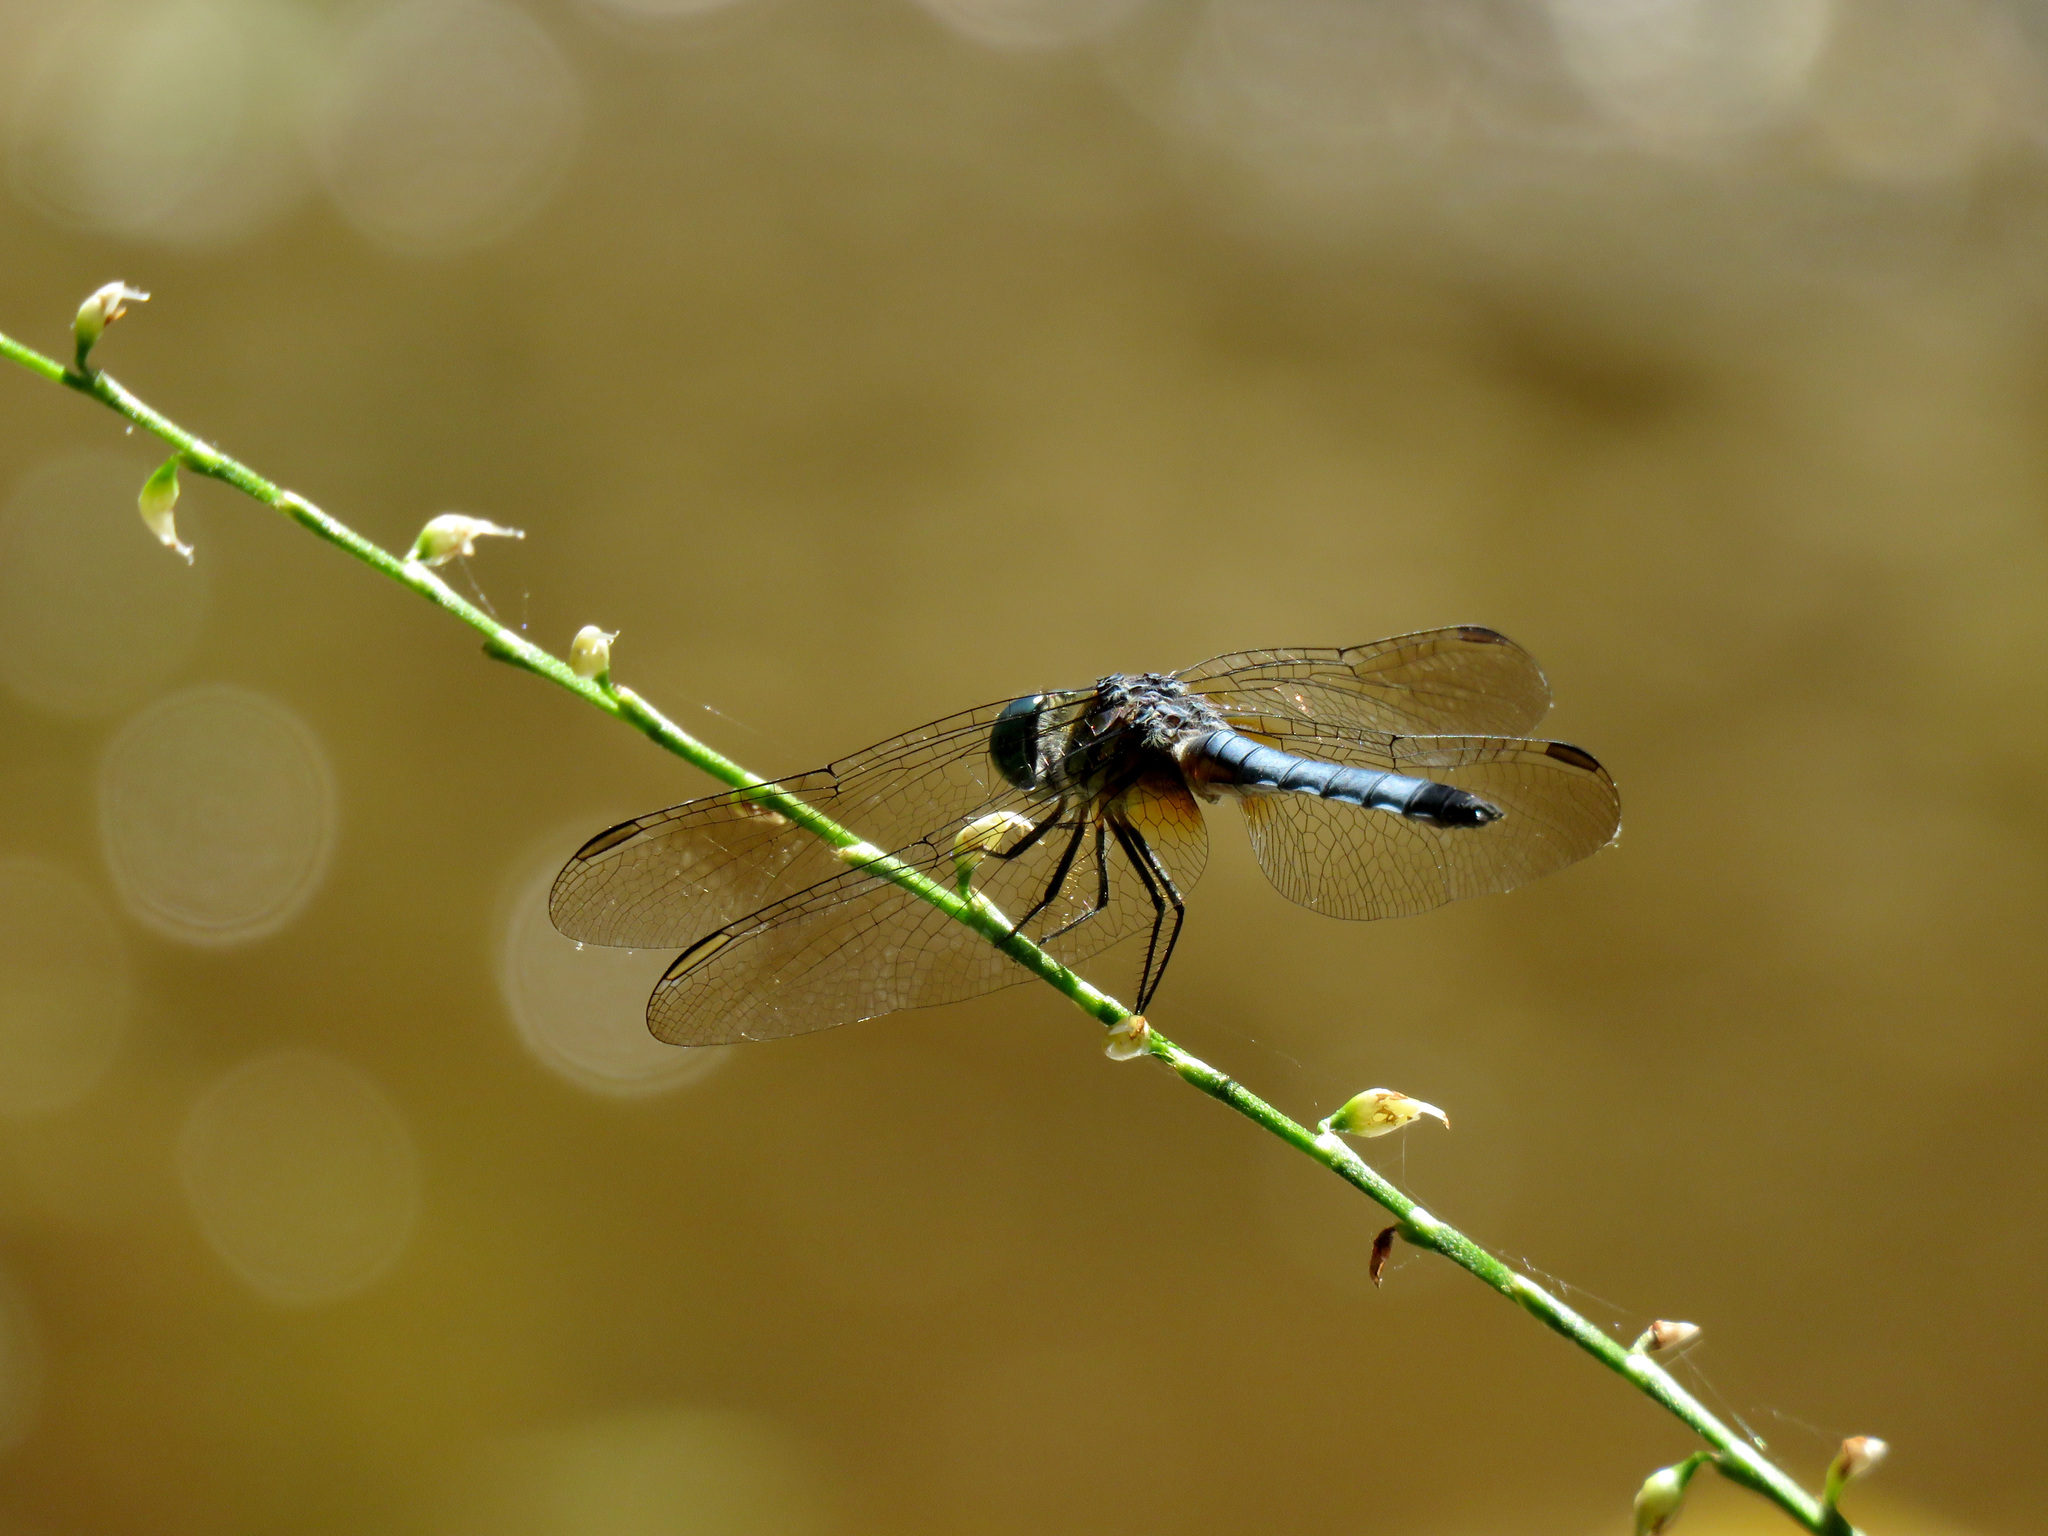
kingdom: Animalia
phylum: Arthropoda
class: Insecta
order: Odonata
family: Libellulidae
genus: Pachydiplax
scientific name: Pachydiplax longipennis
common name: Blue dasher
